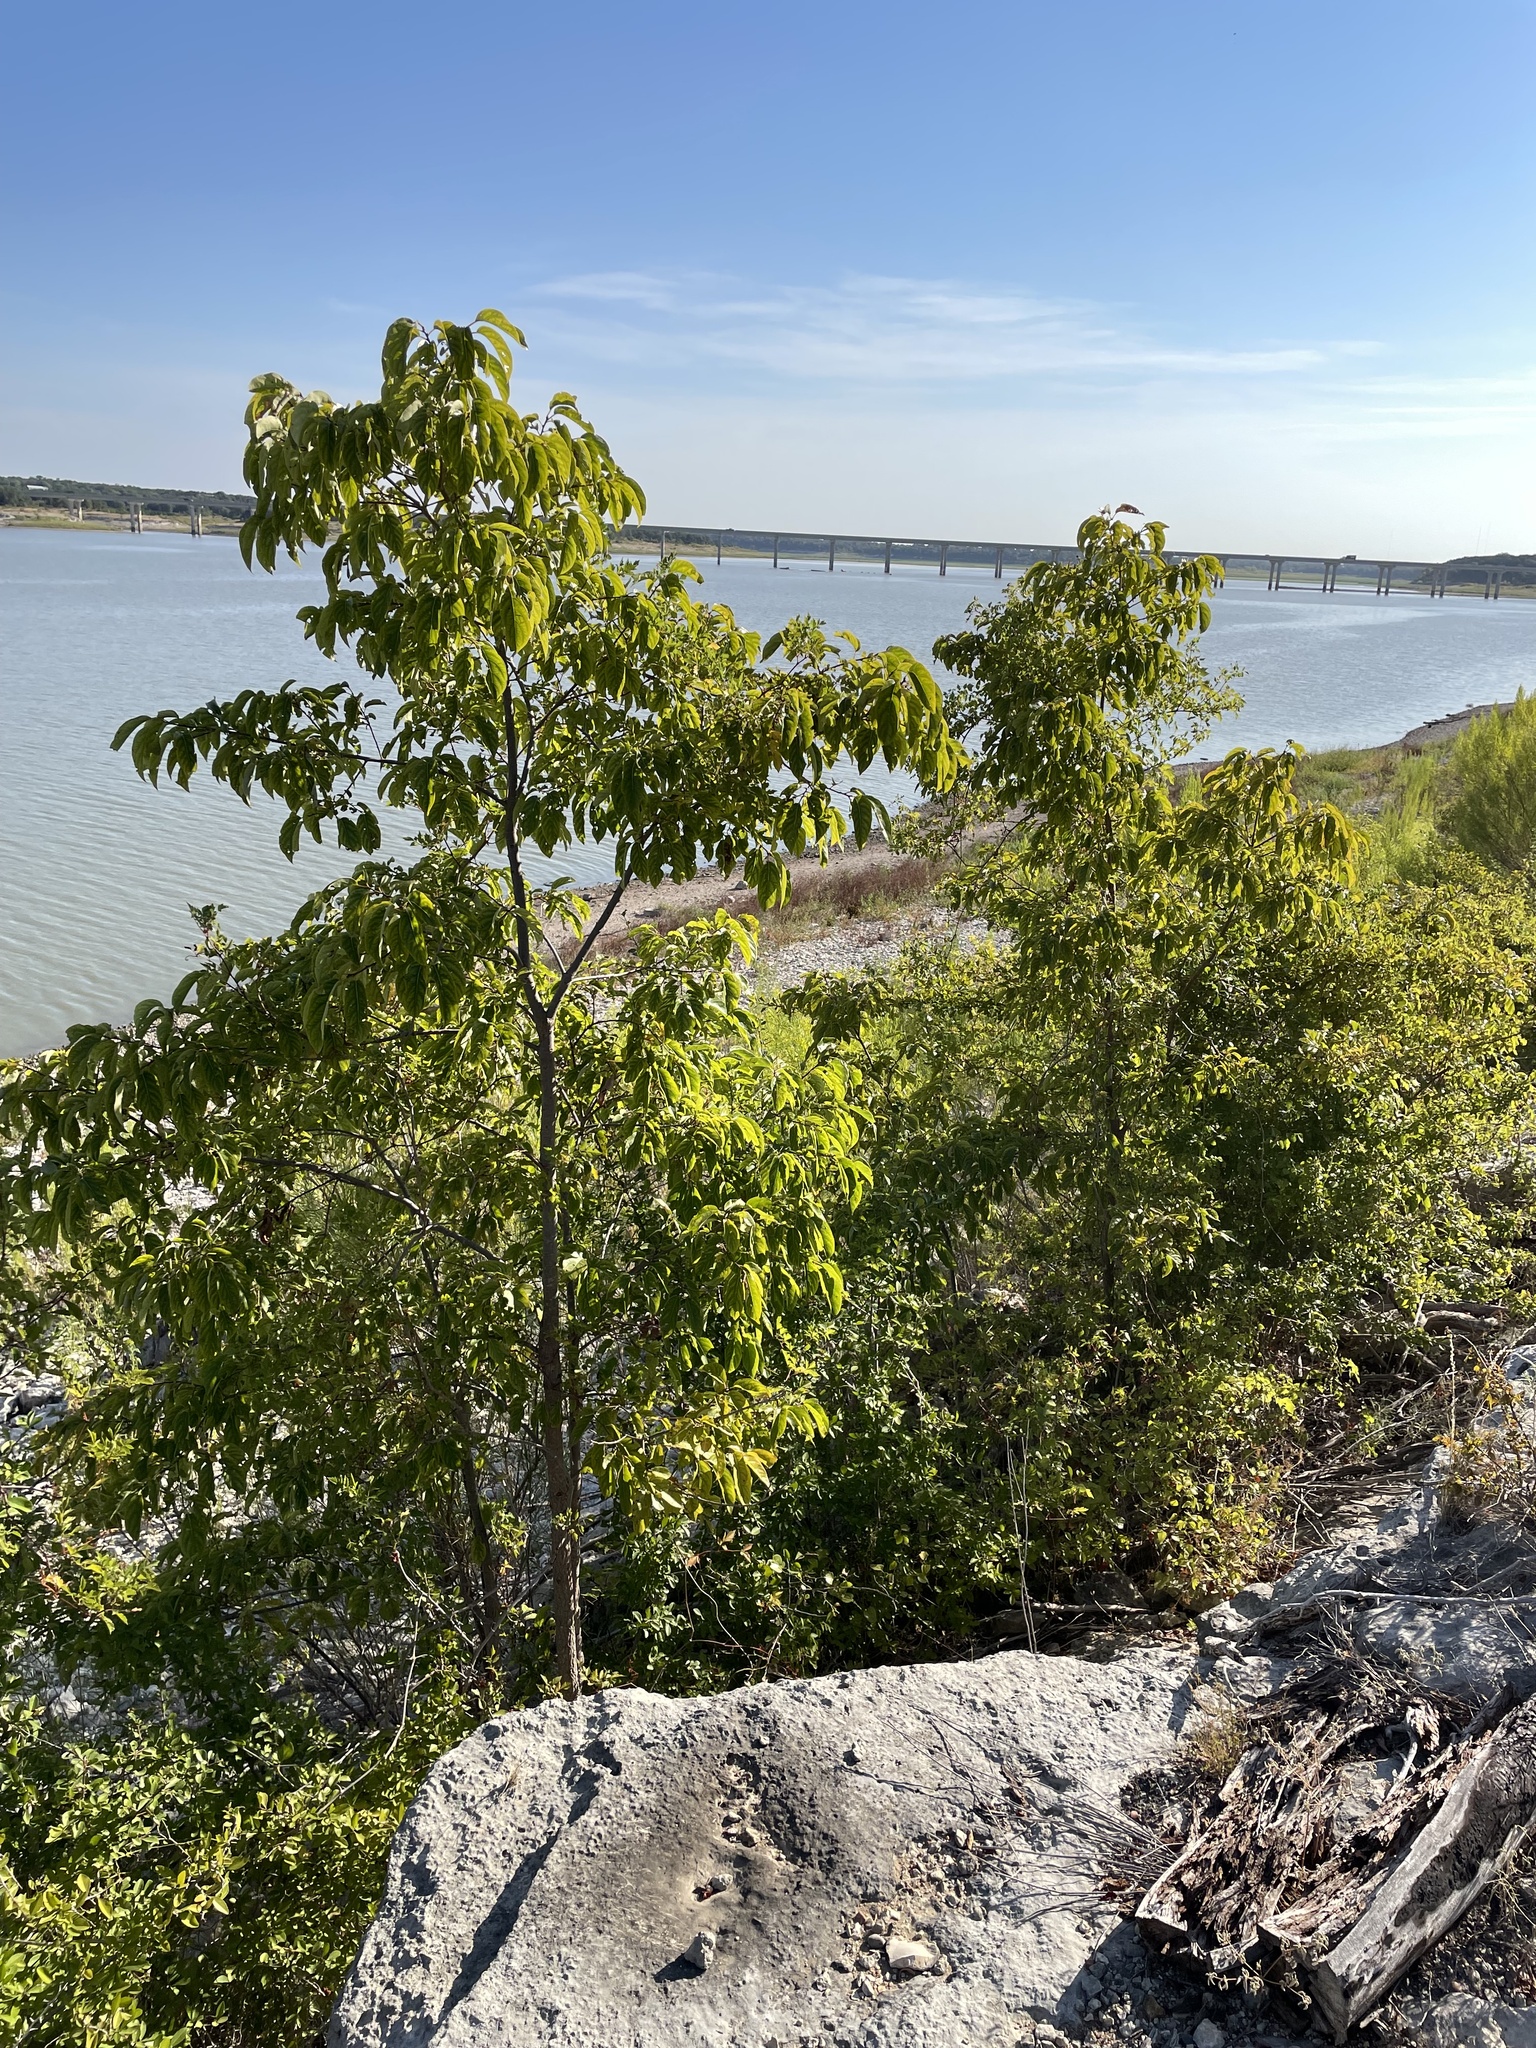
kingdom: Plantae
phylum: Tracheophyta
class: Magnoliopsida
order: Ericales
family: Ebenaceae
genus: Diospyros
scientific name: Diospyros virginiana
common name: Persimmon
